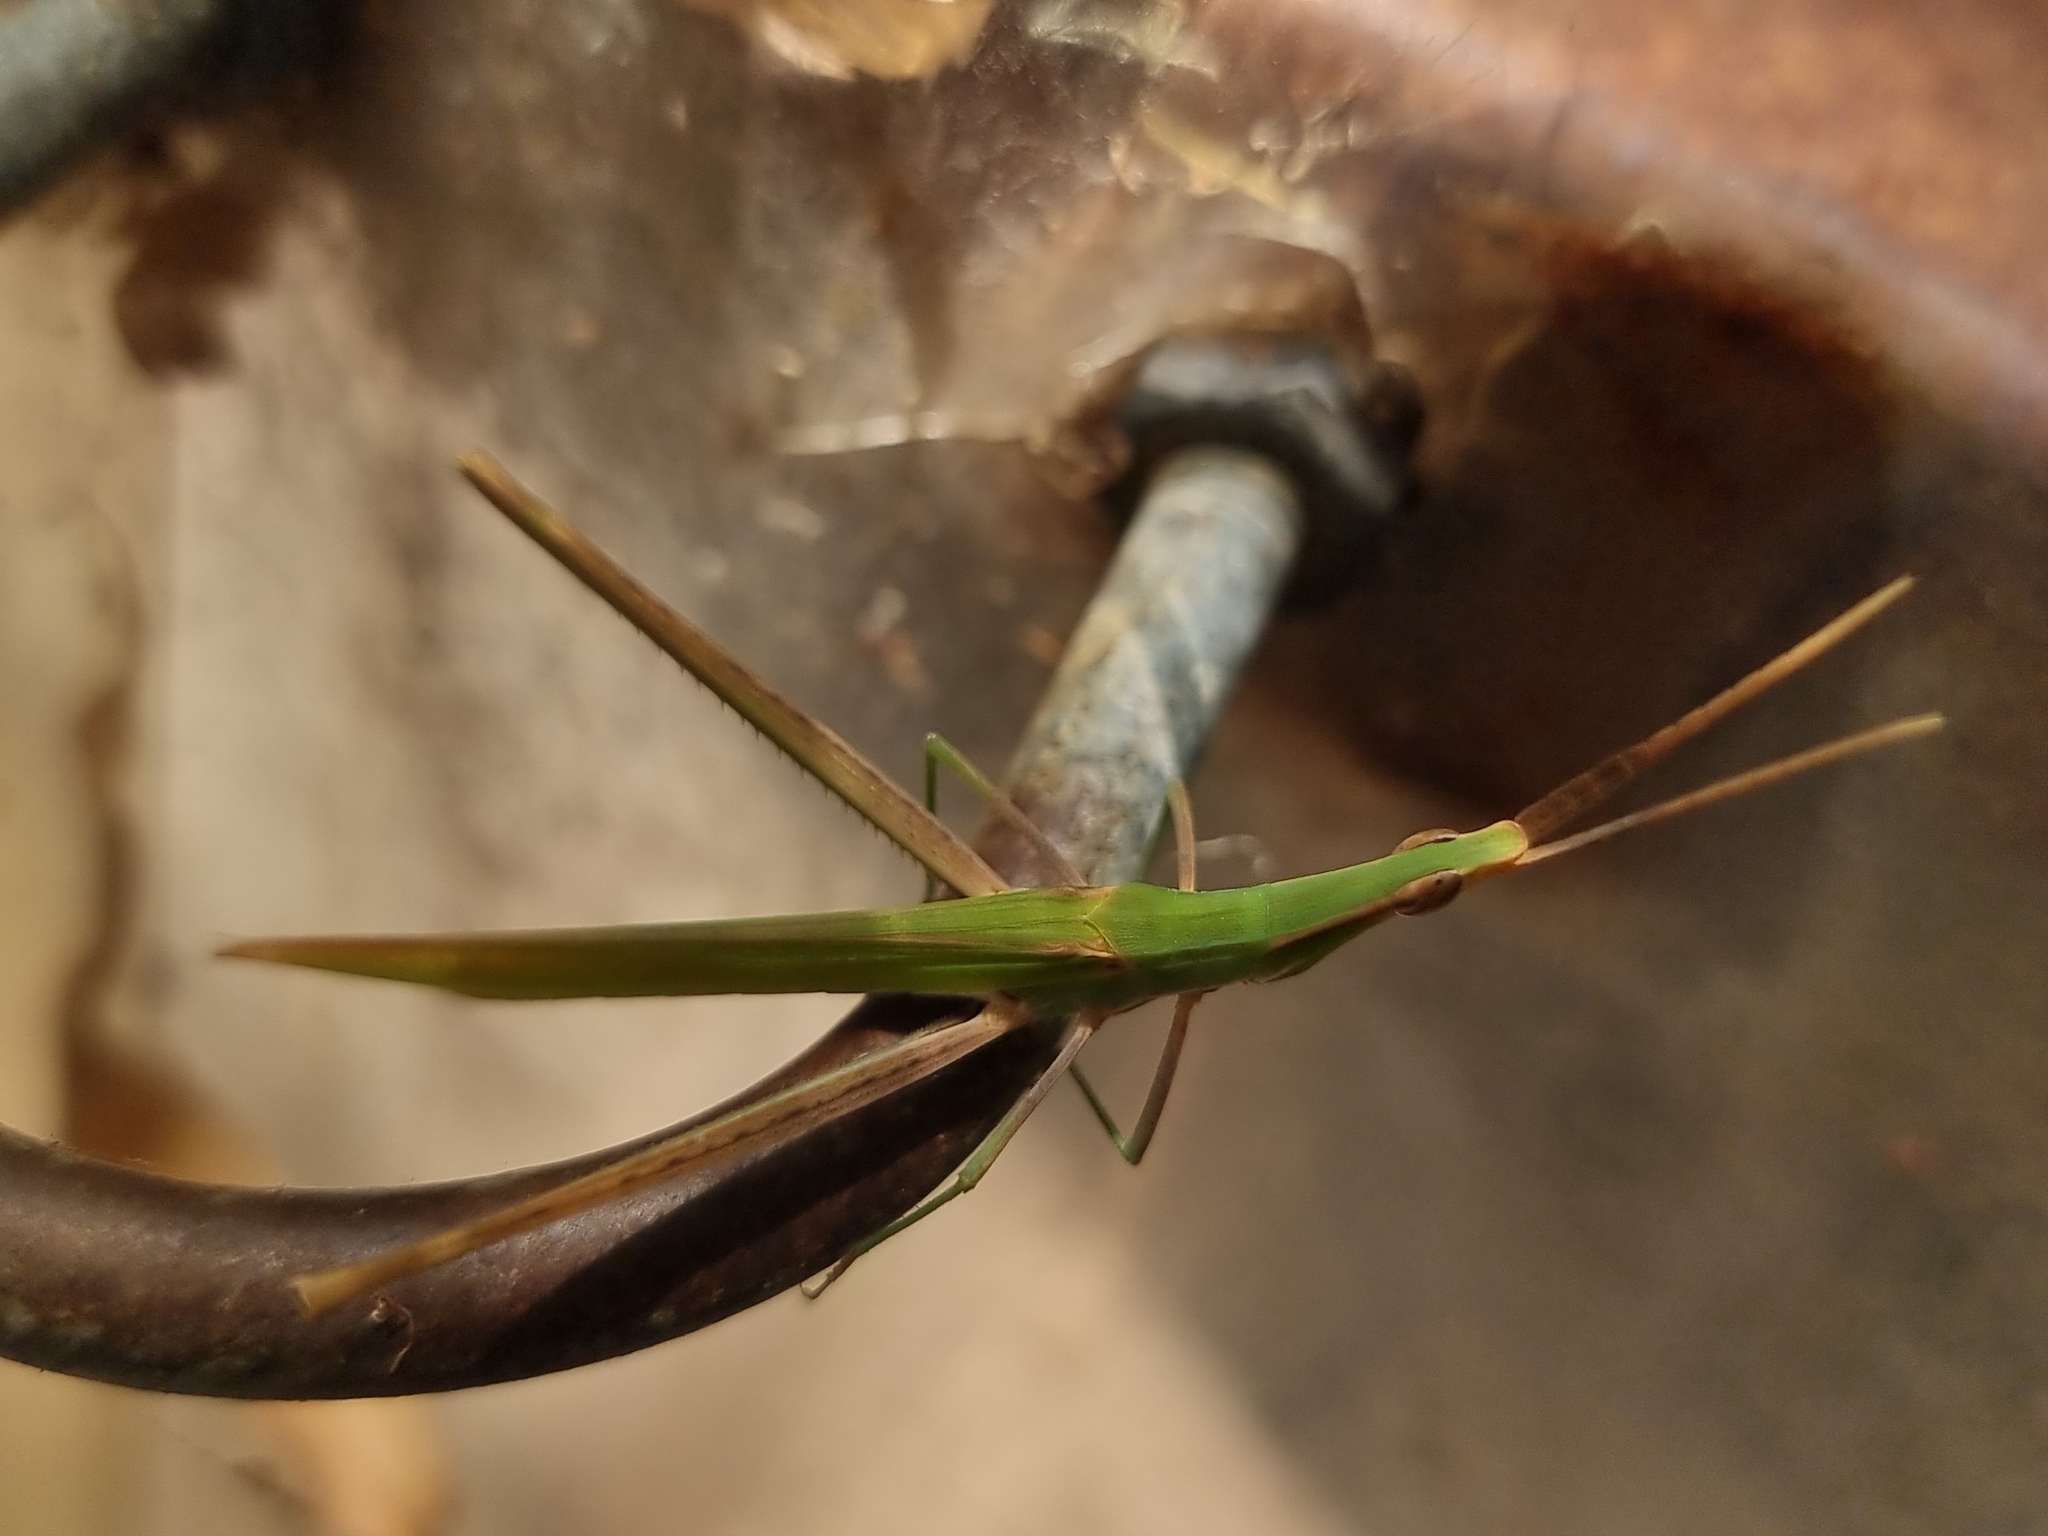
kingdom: Animalia
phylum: Arthropoda
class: Insecta
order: Orthoptera
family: Acrididae
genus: Acrida
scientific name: Acrida conica
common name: Giant green slantface
